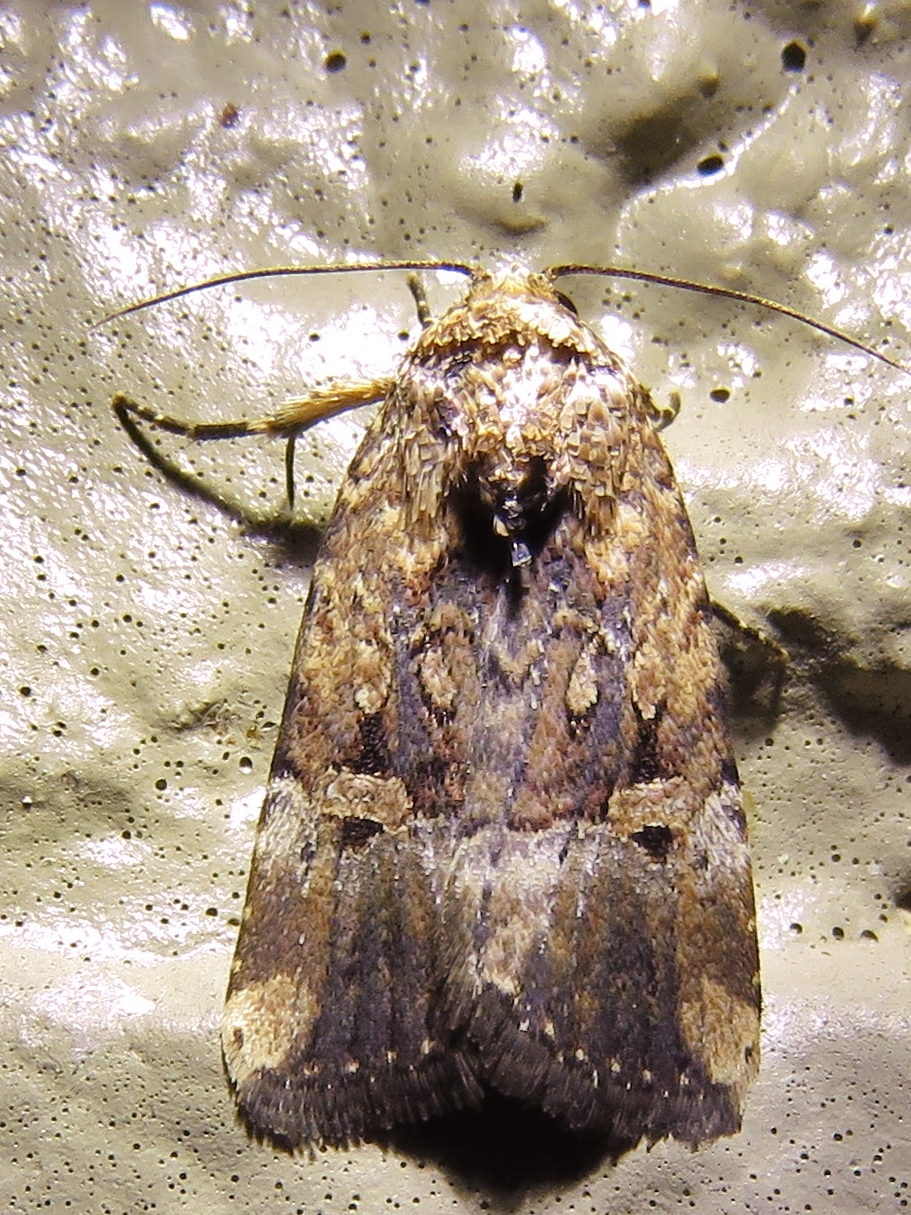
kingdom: Animalia
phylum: Arthropoda
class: Insecta
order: Lepidoptera
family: Noctuidae
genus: Elaphria
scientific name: Elaphria chalcedonia
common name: Chalcedony midget
